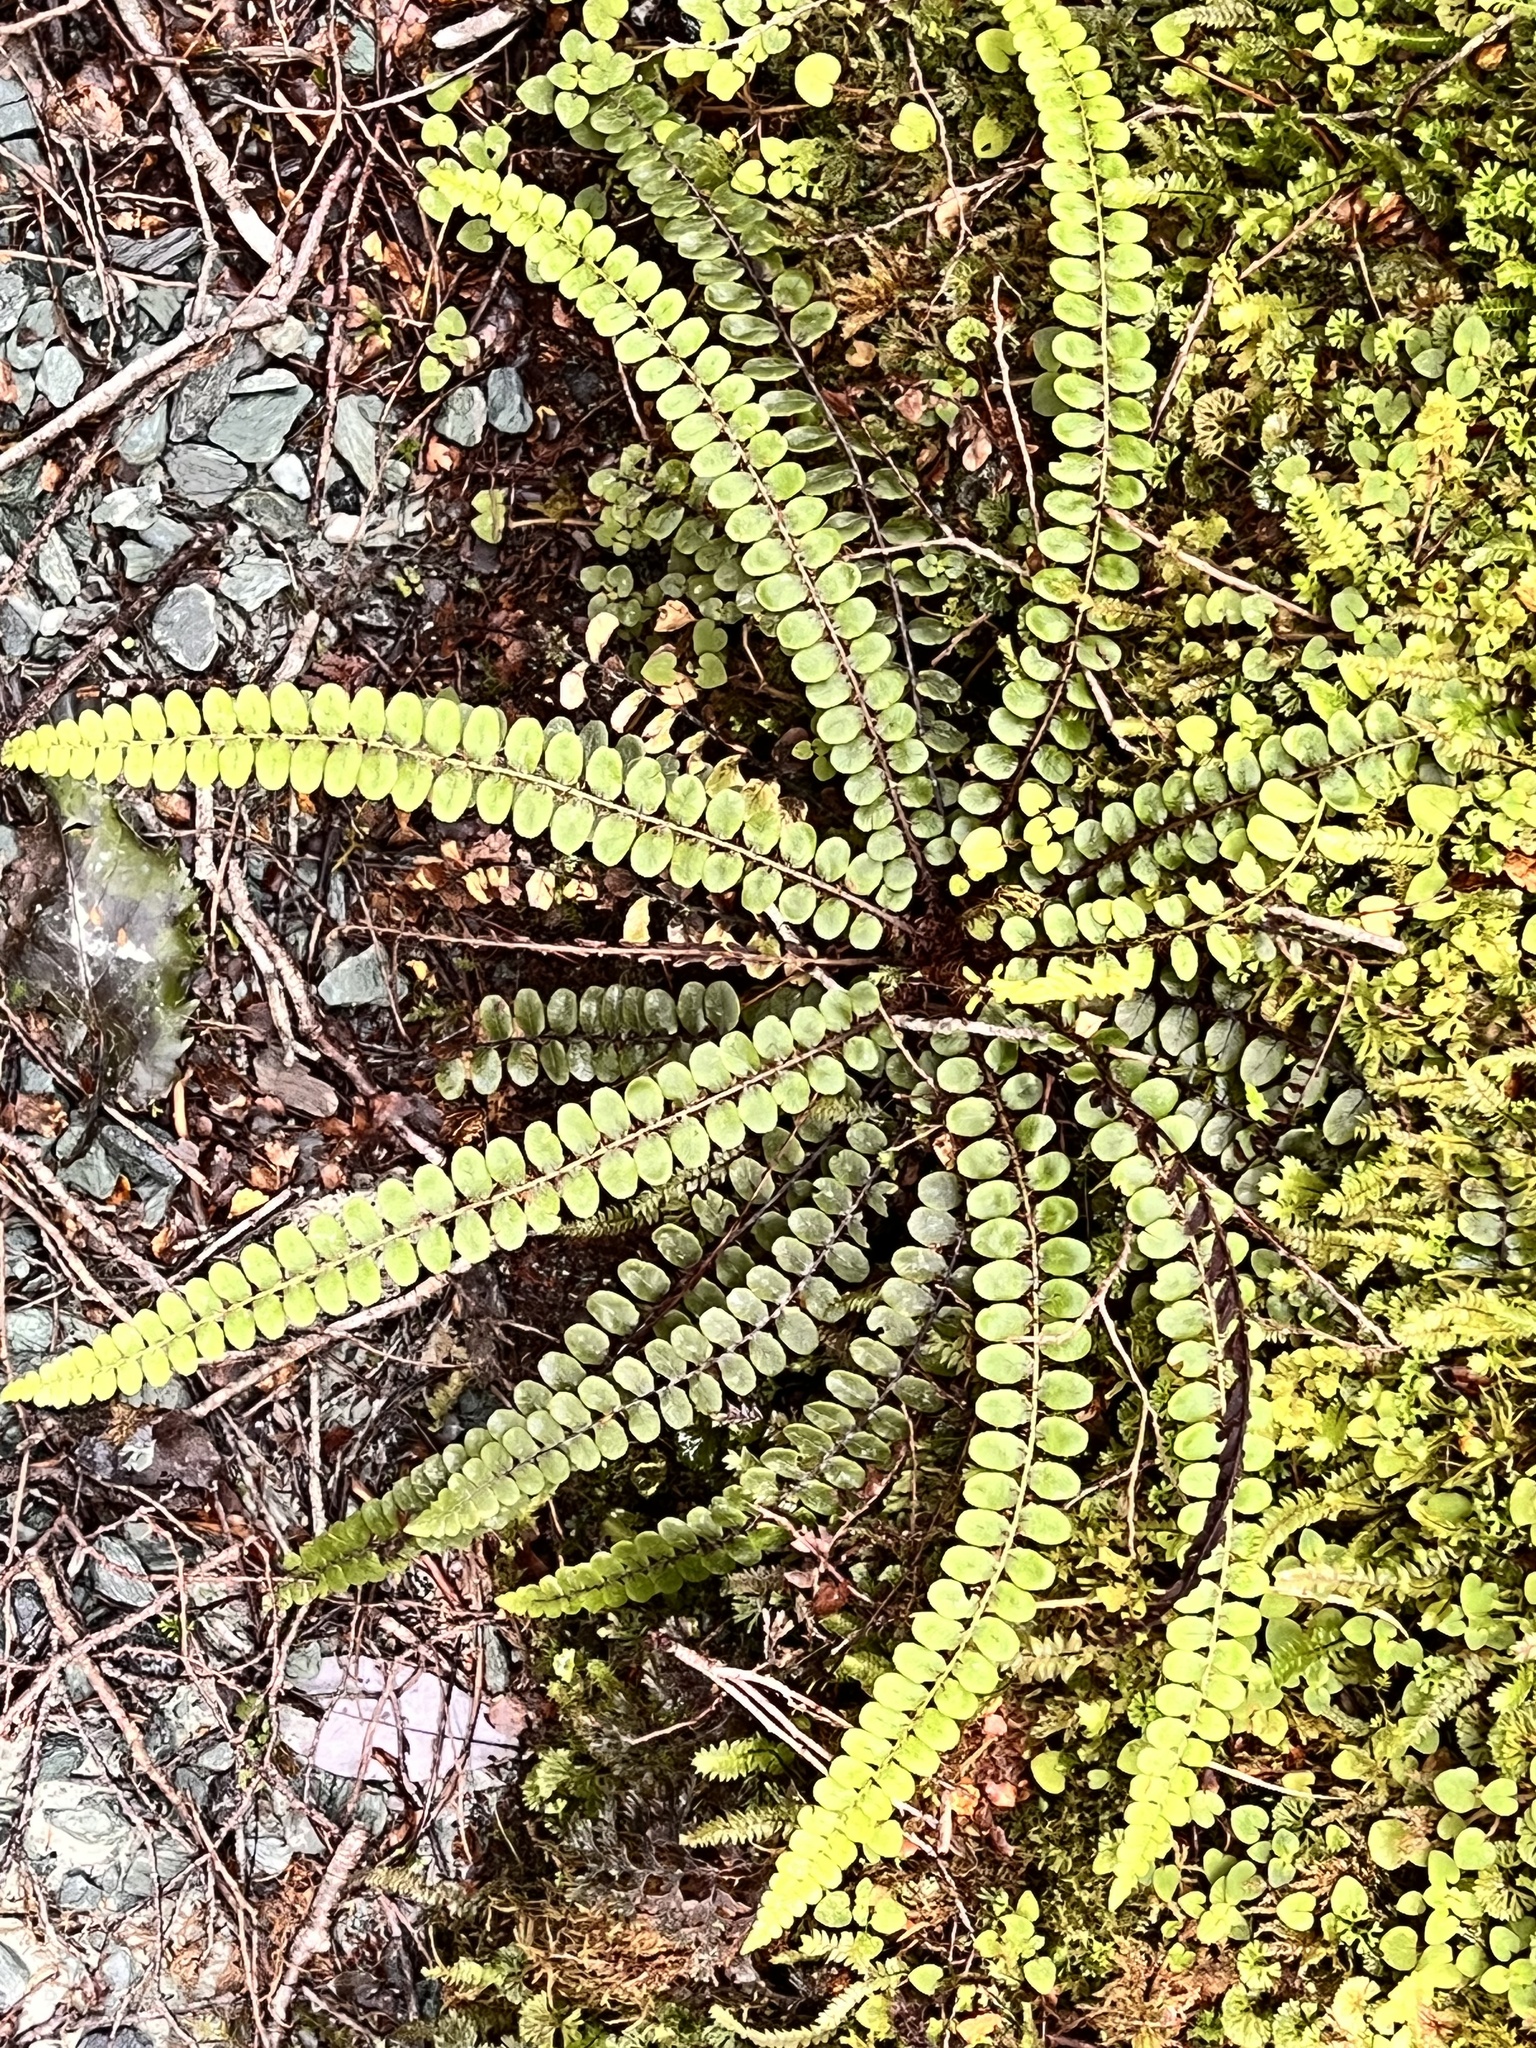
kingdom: Plantae
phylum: Tracheophyta
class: Polypodiopsida
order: Polypodiales
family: Blechnaceae
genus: Cranfillia
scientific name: Cranfillia fluviatilis
